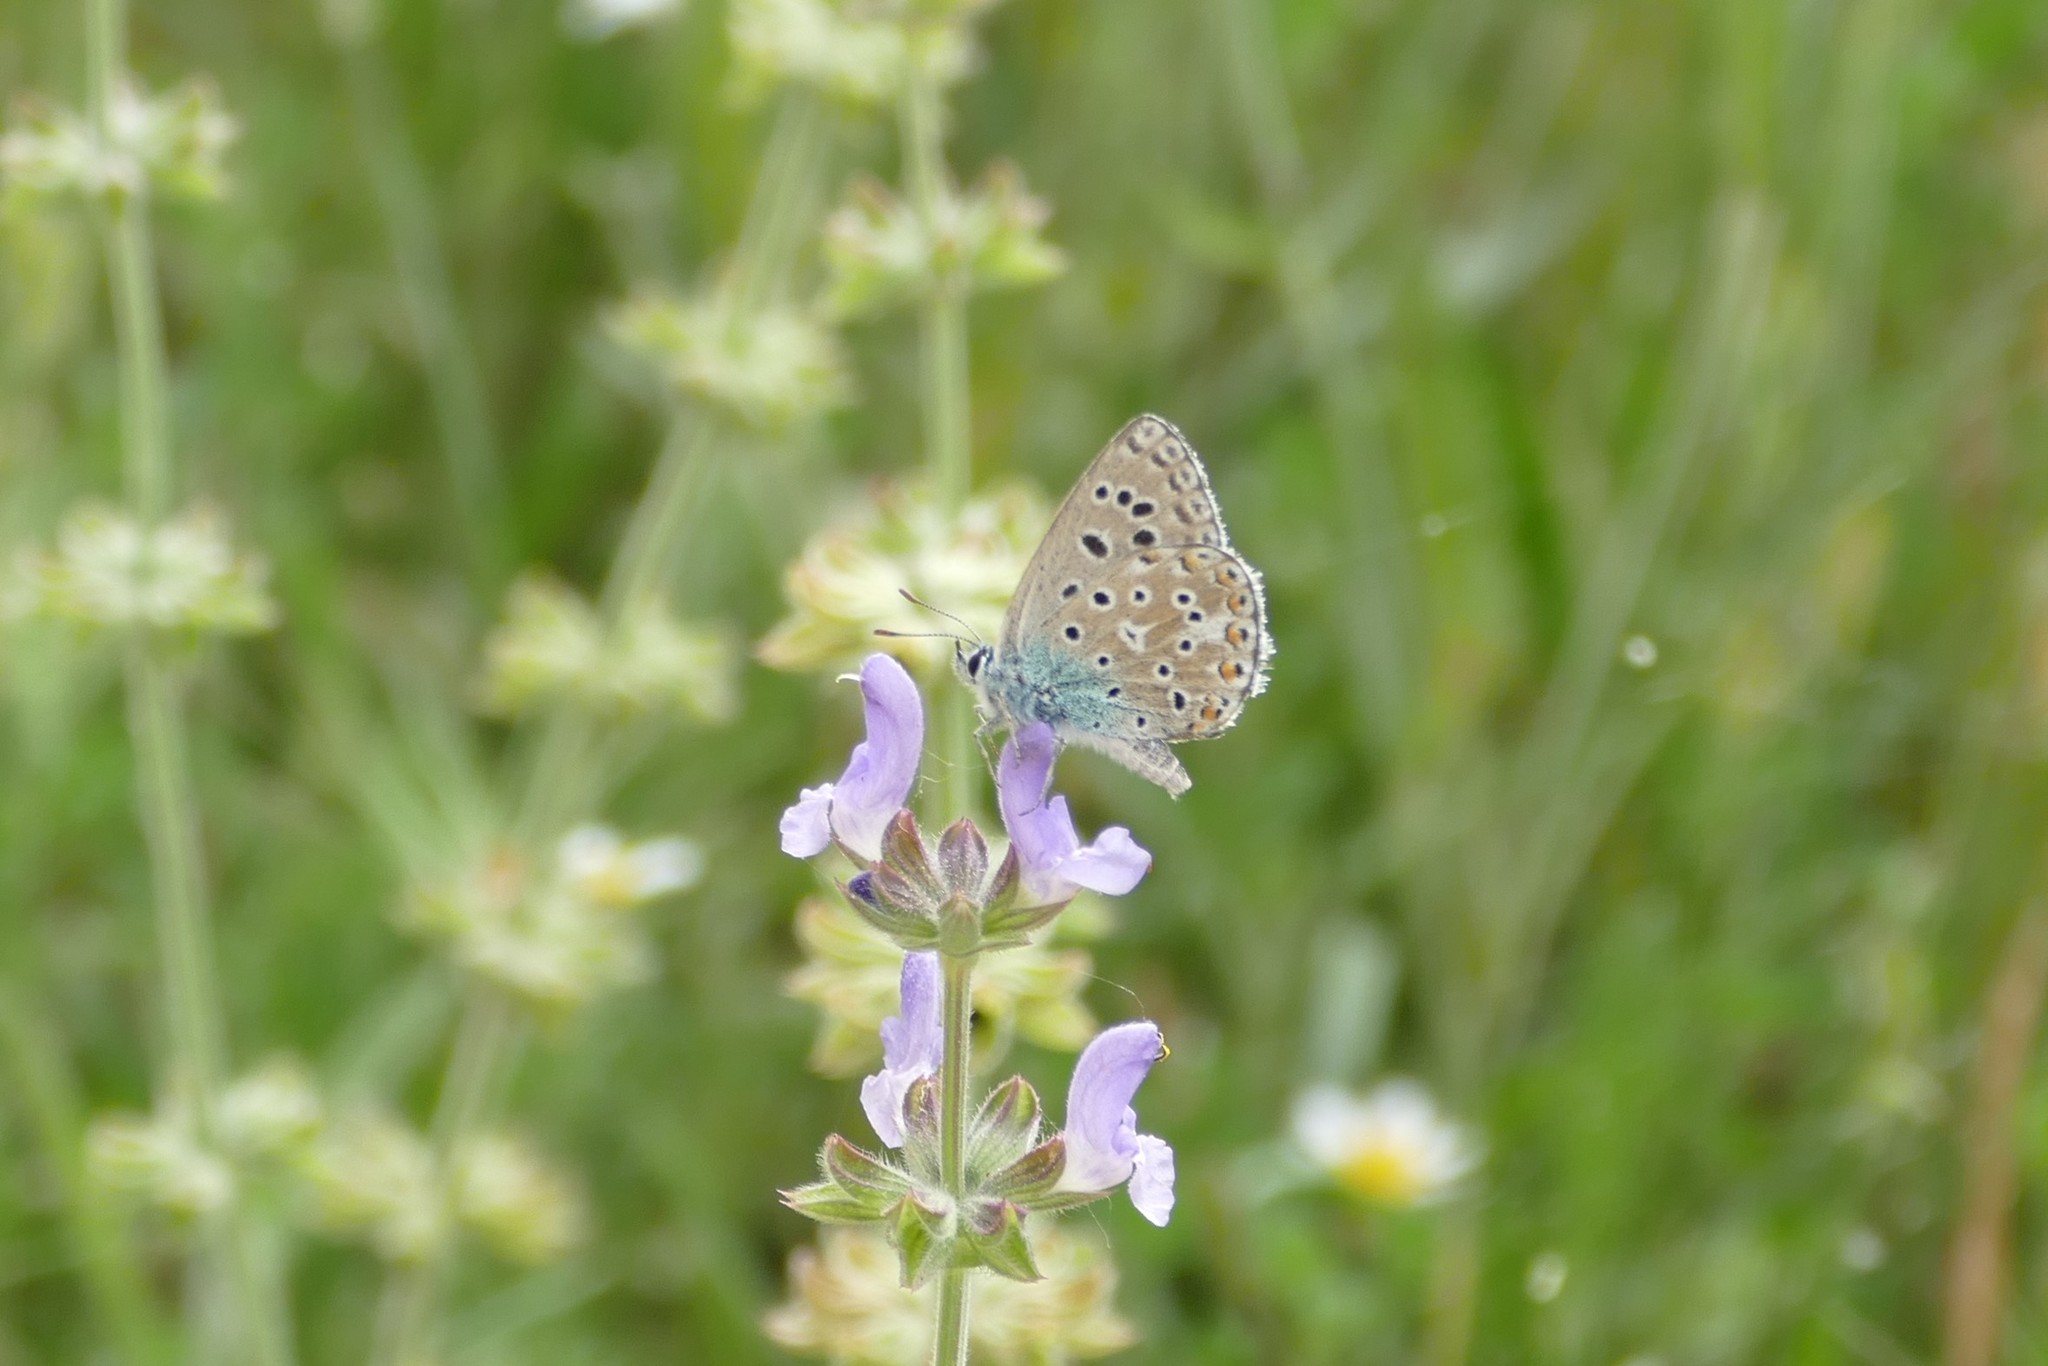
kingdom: Animalia
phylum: Arthropoda
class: Insecta
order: Lepidoptera
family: Lycaenidae
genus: Lysandra
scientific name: Lysandra bellargus
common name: Adonis blue
